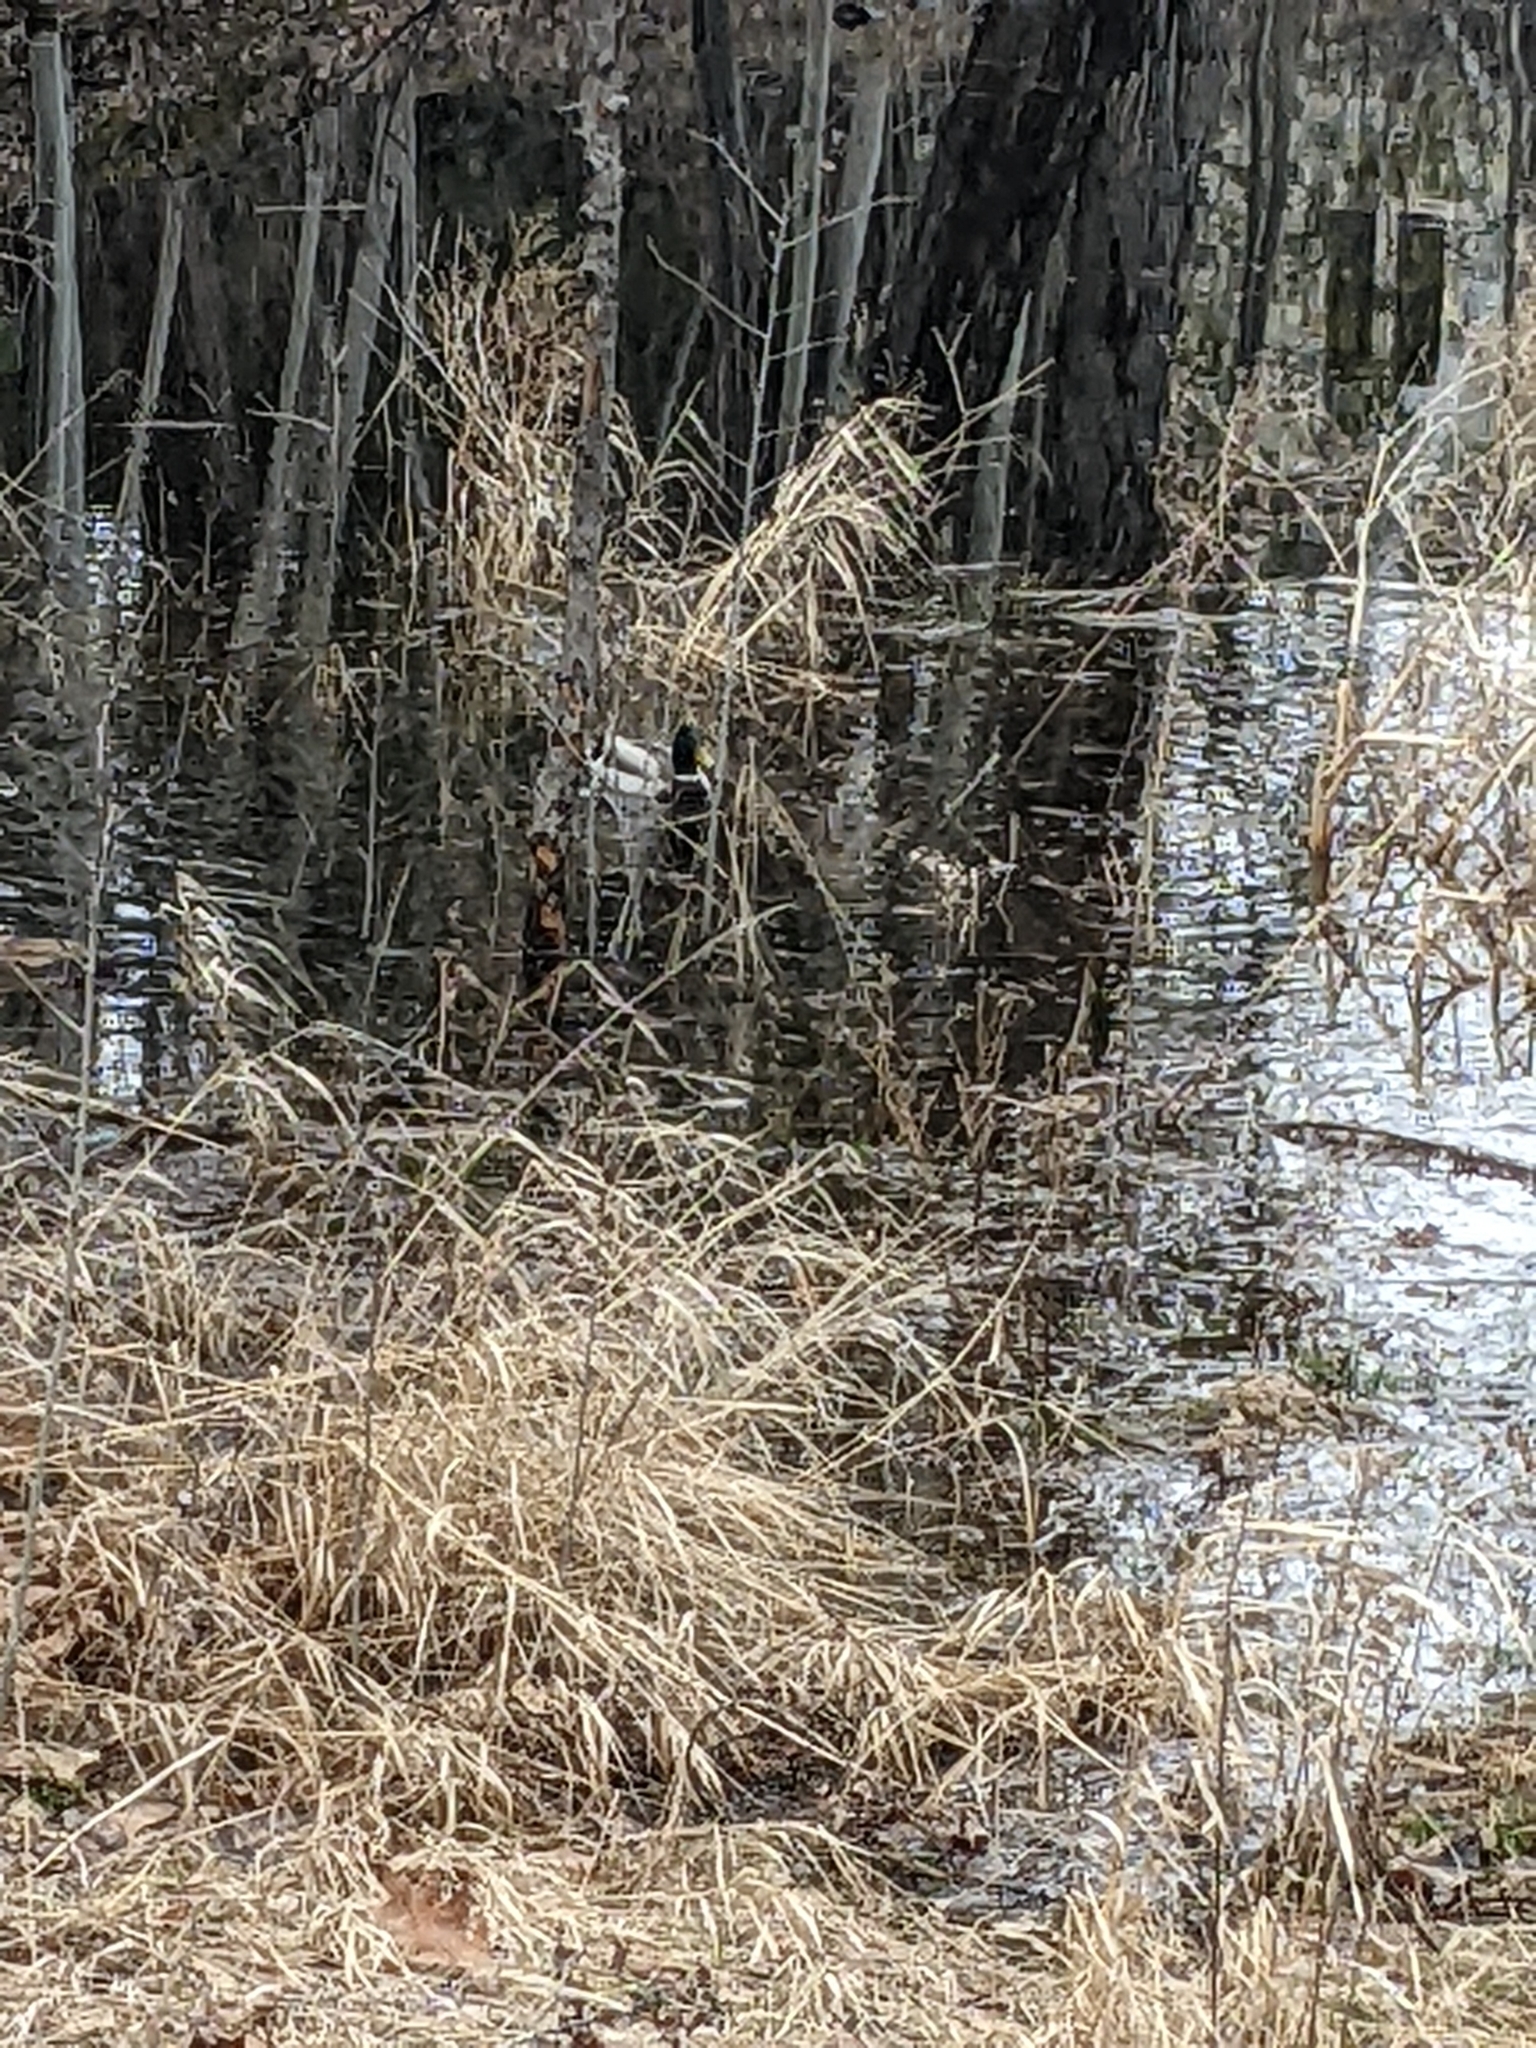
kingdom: Animalia
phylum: Chordata
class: Aves
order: Anseriformes
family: Anatidae
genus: Anas
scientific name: Anas platyrhynchos
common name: Mallard
